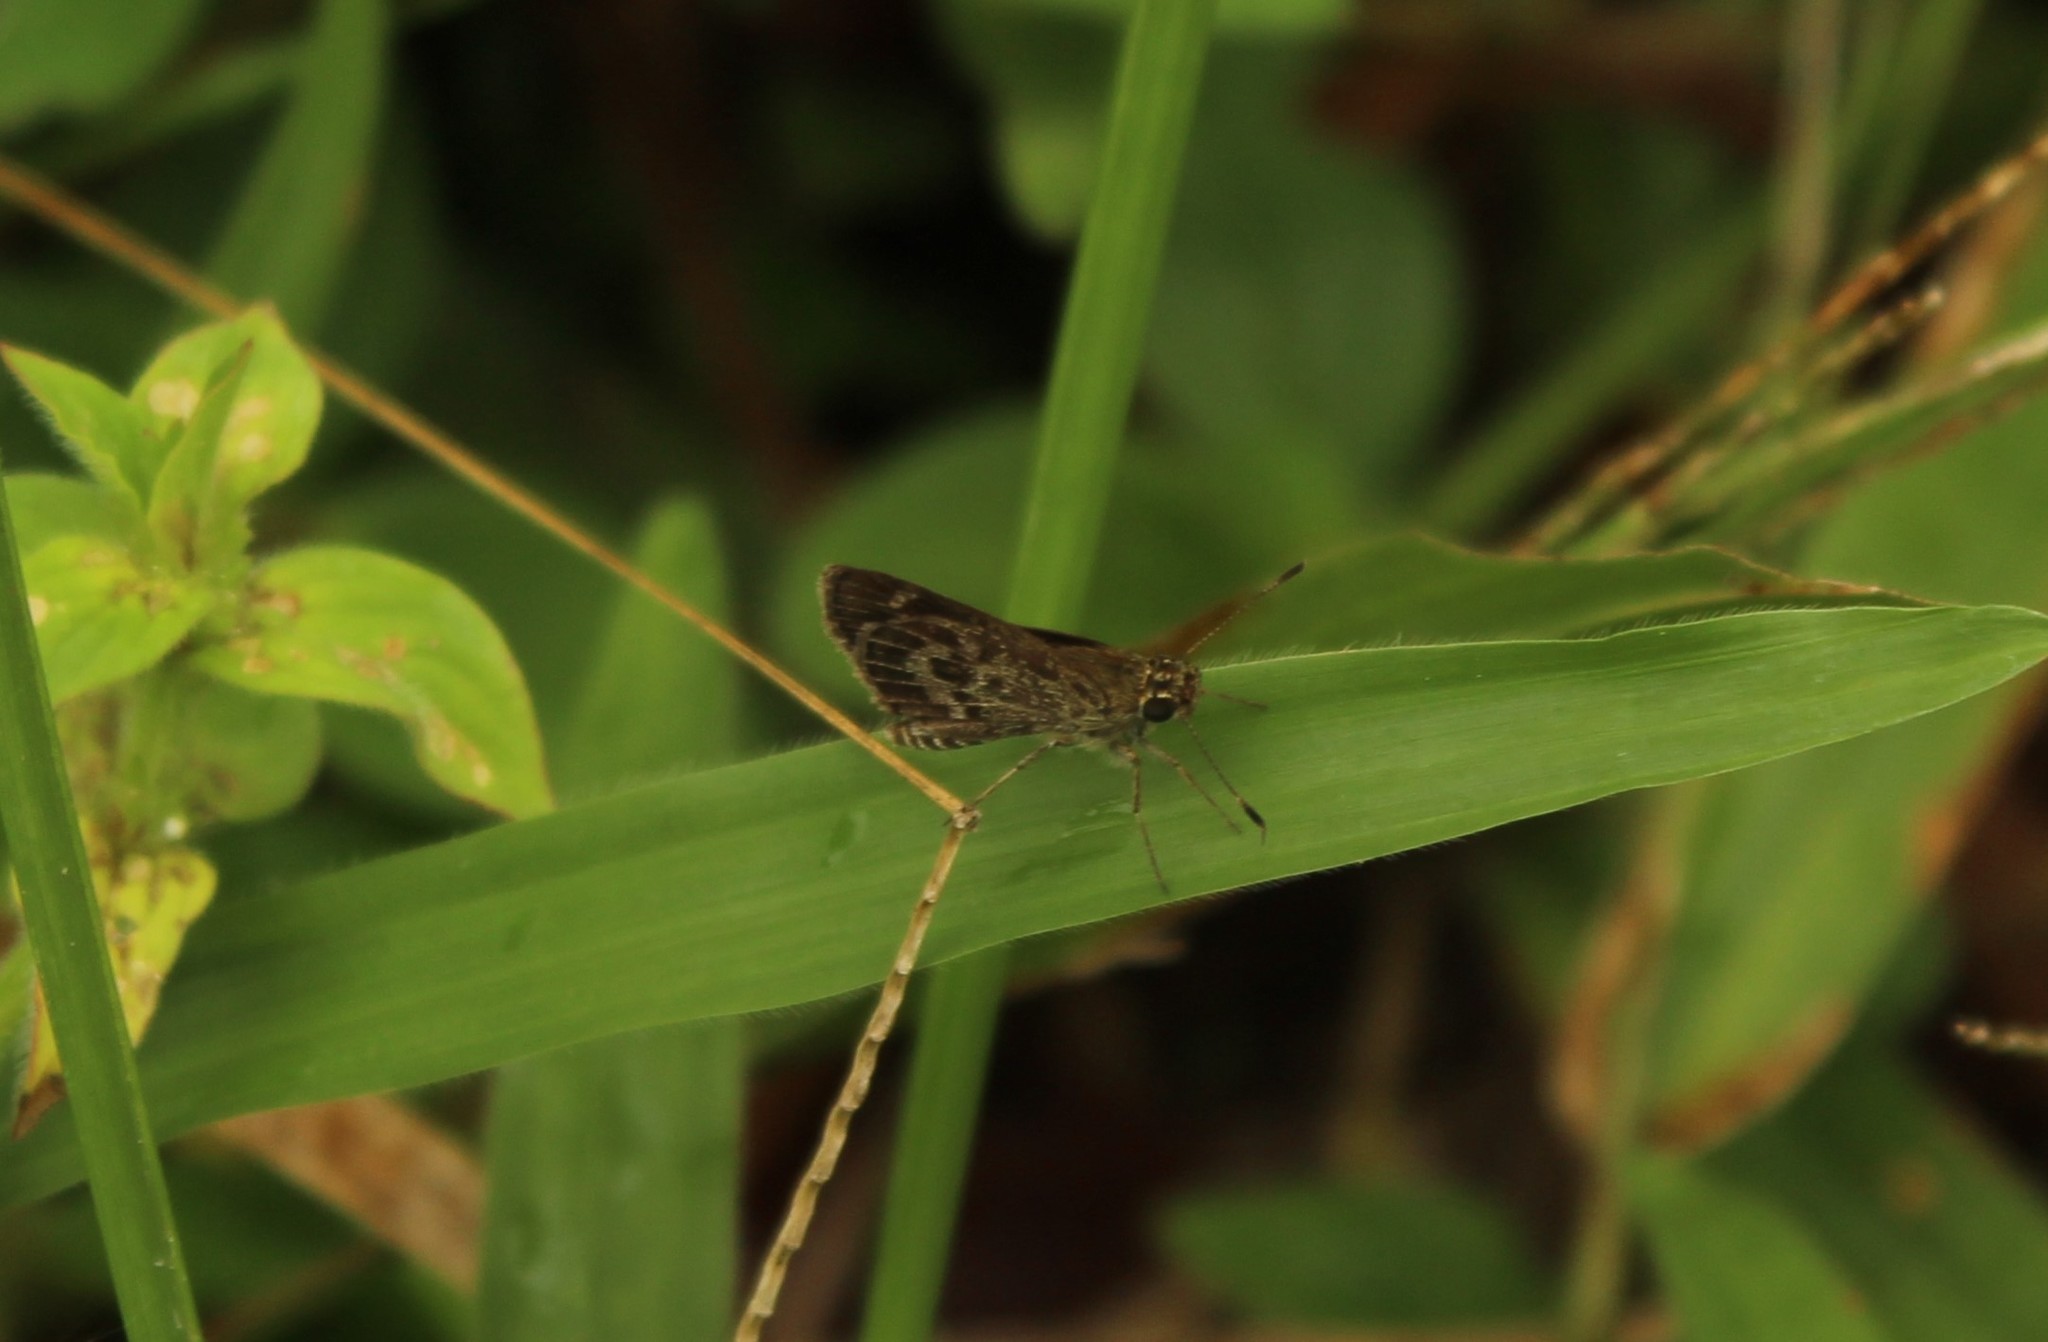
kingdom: Animalia
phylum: Arthropoda
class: Insecta
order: Lepidoptera
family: Hesperiidae
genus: Callimormus
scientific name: Callimormus corades
